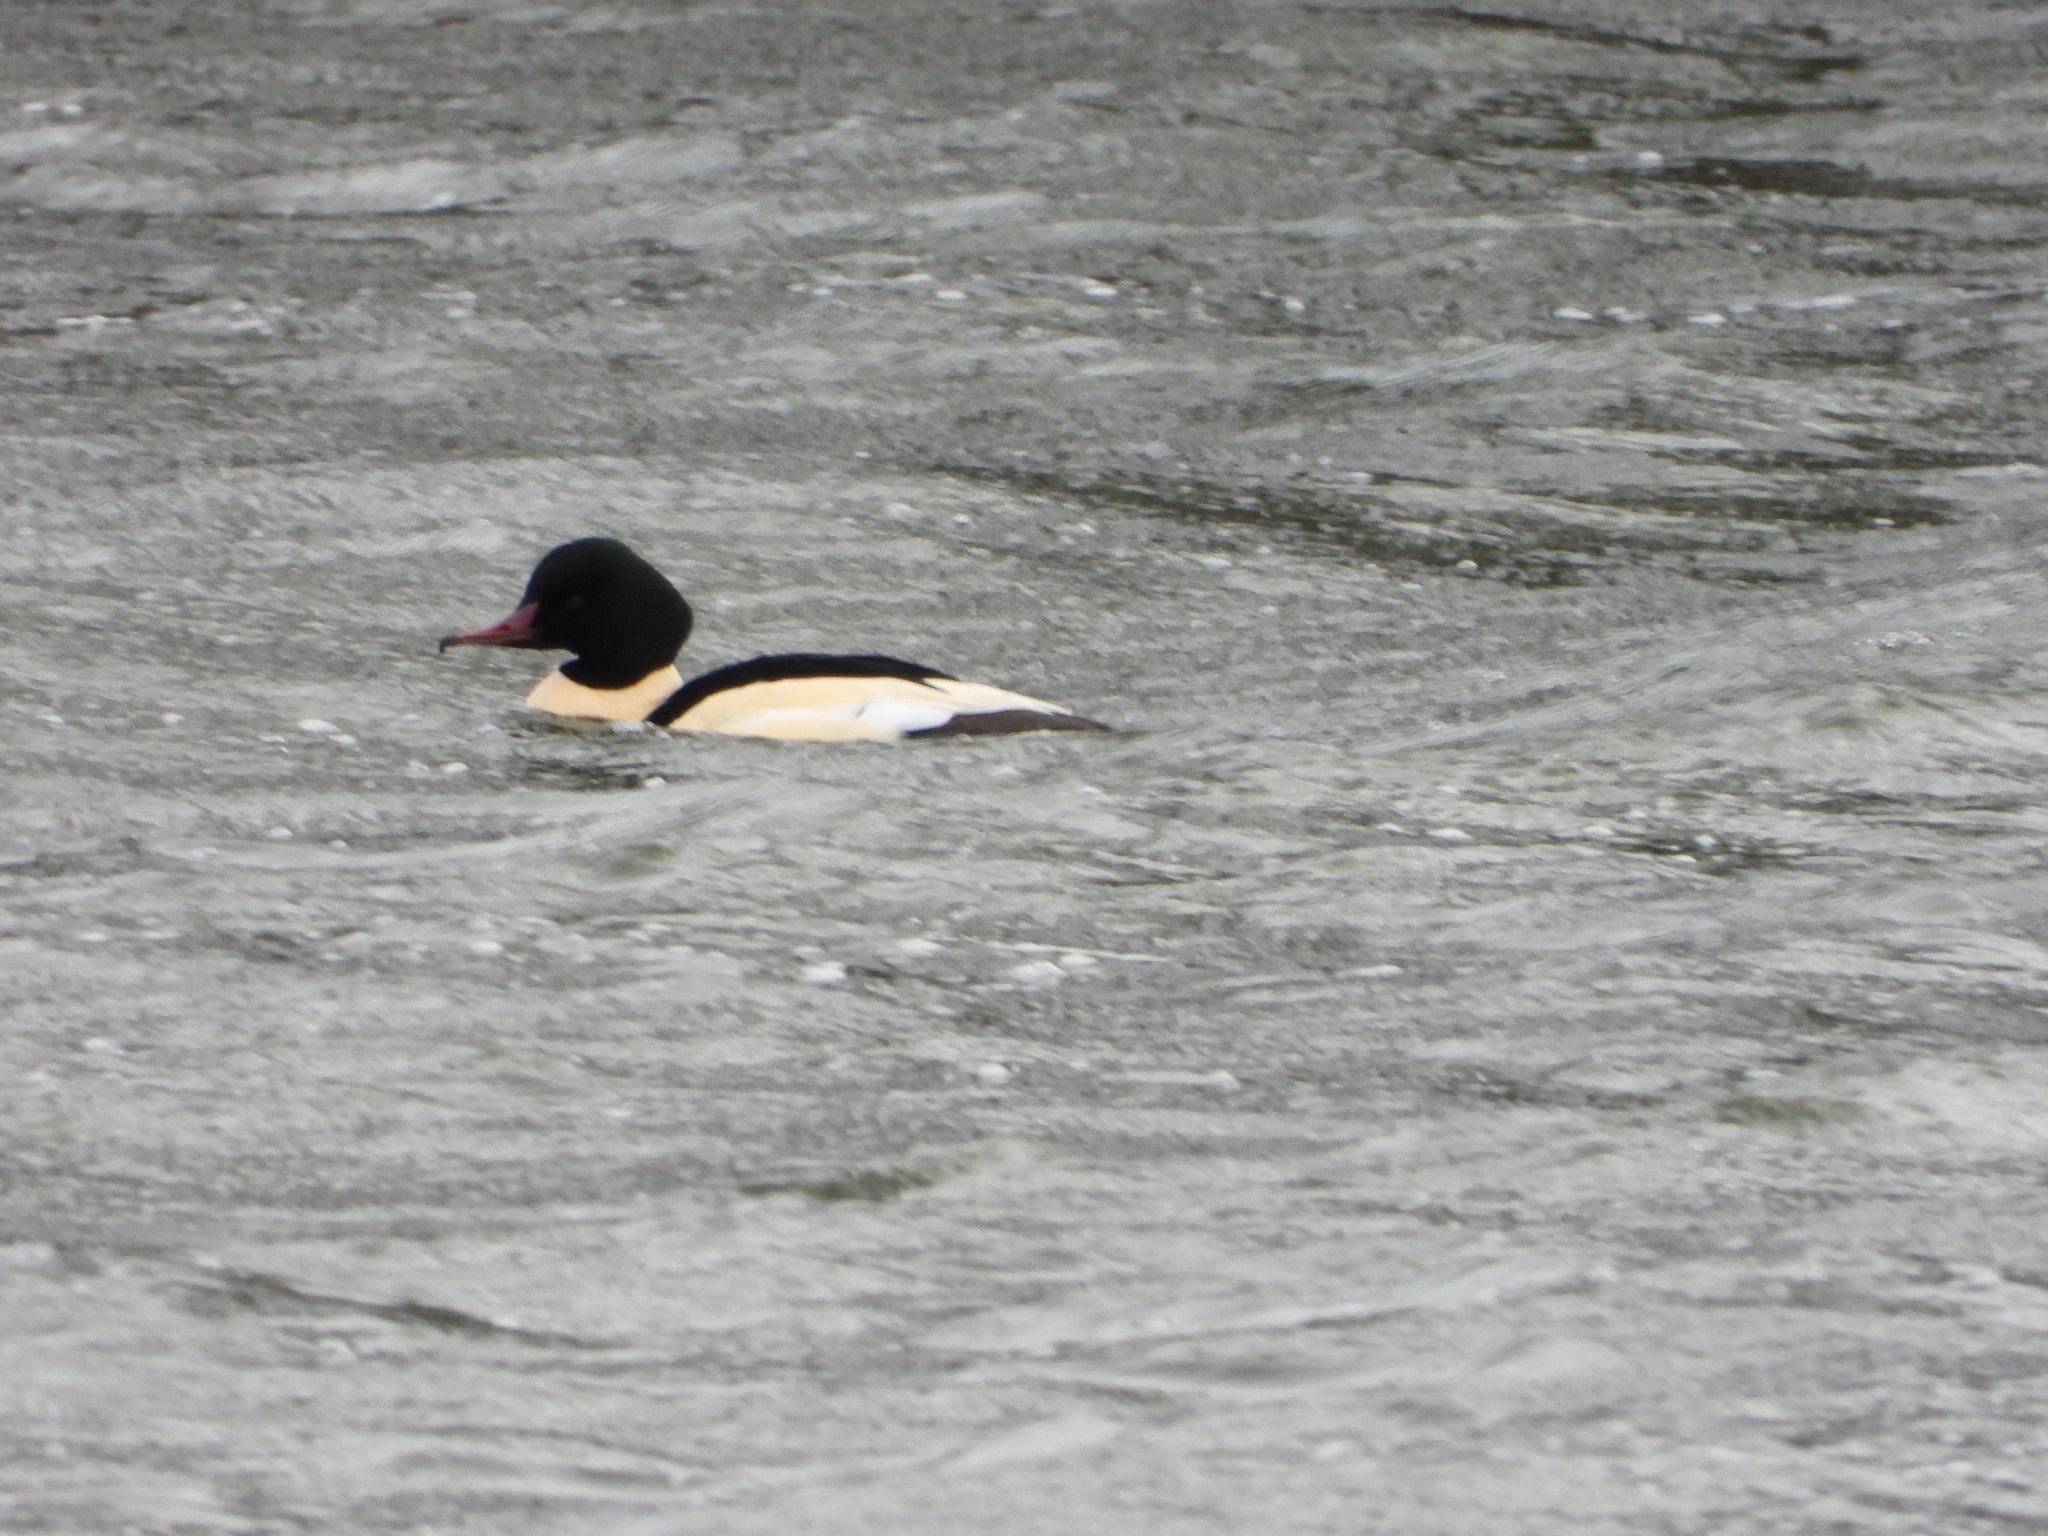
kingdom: Animalia
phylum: Chordata
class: Aves
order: Anseriformes
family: Anatidae
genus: Mergus
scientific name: Mergus merganser
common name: Common merganser
